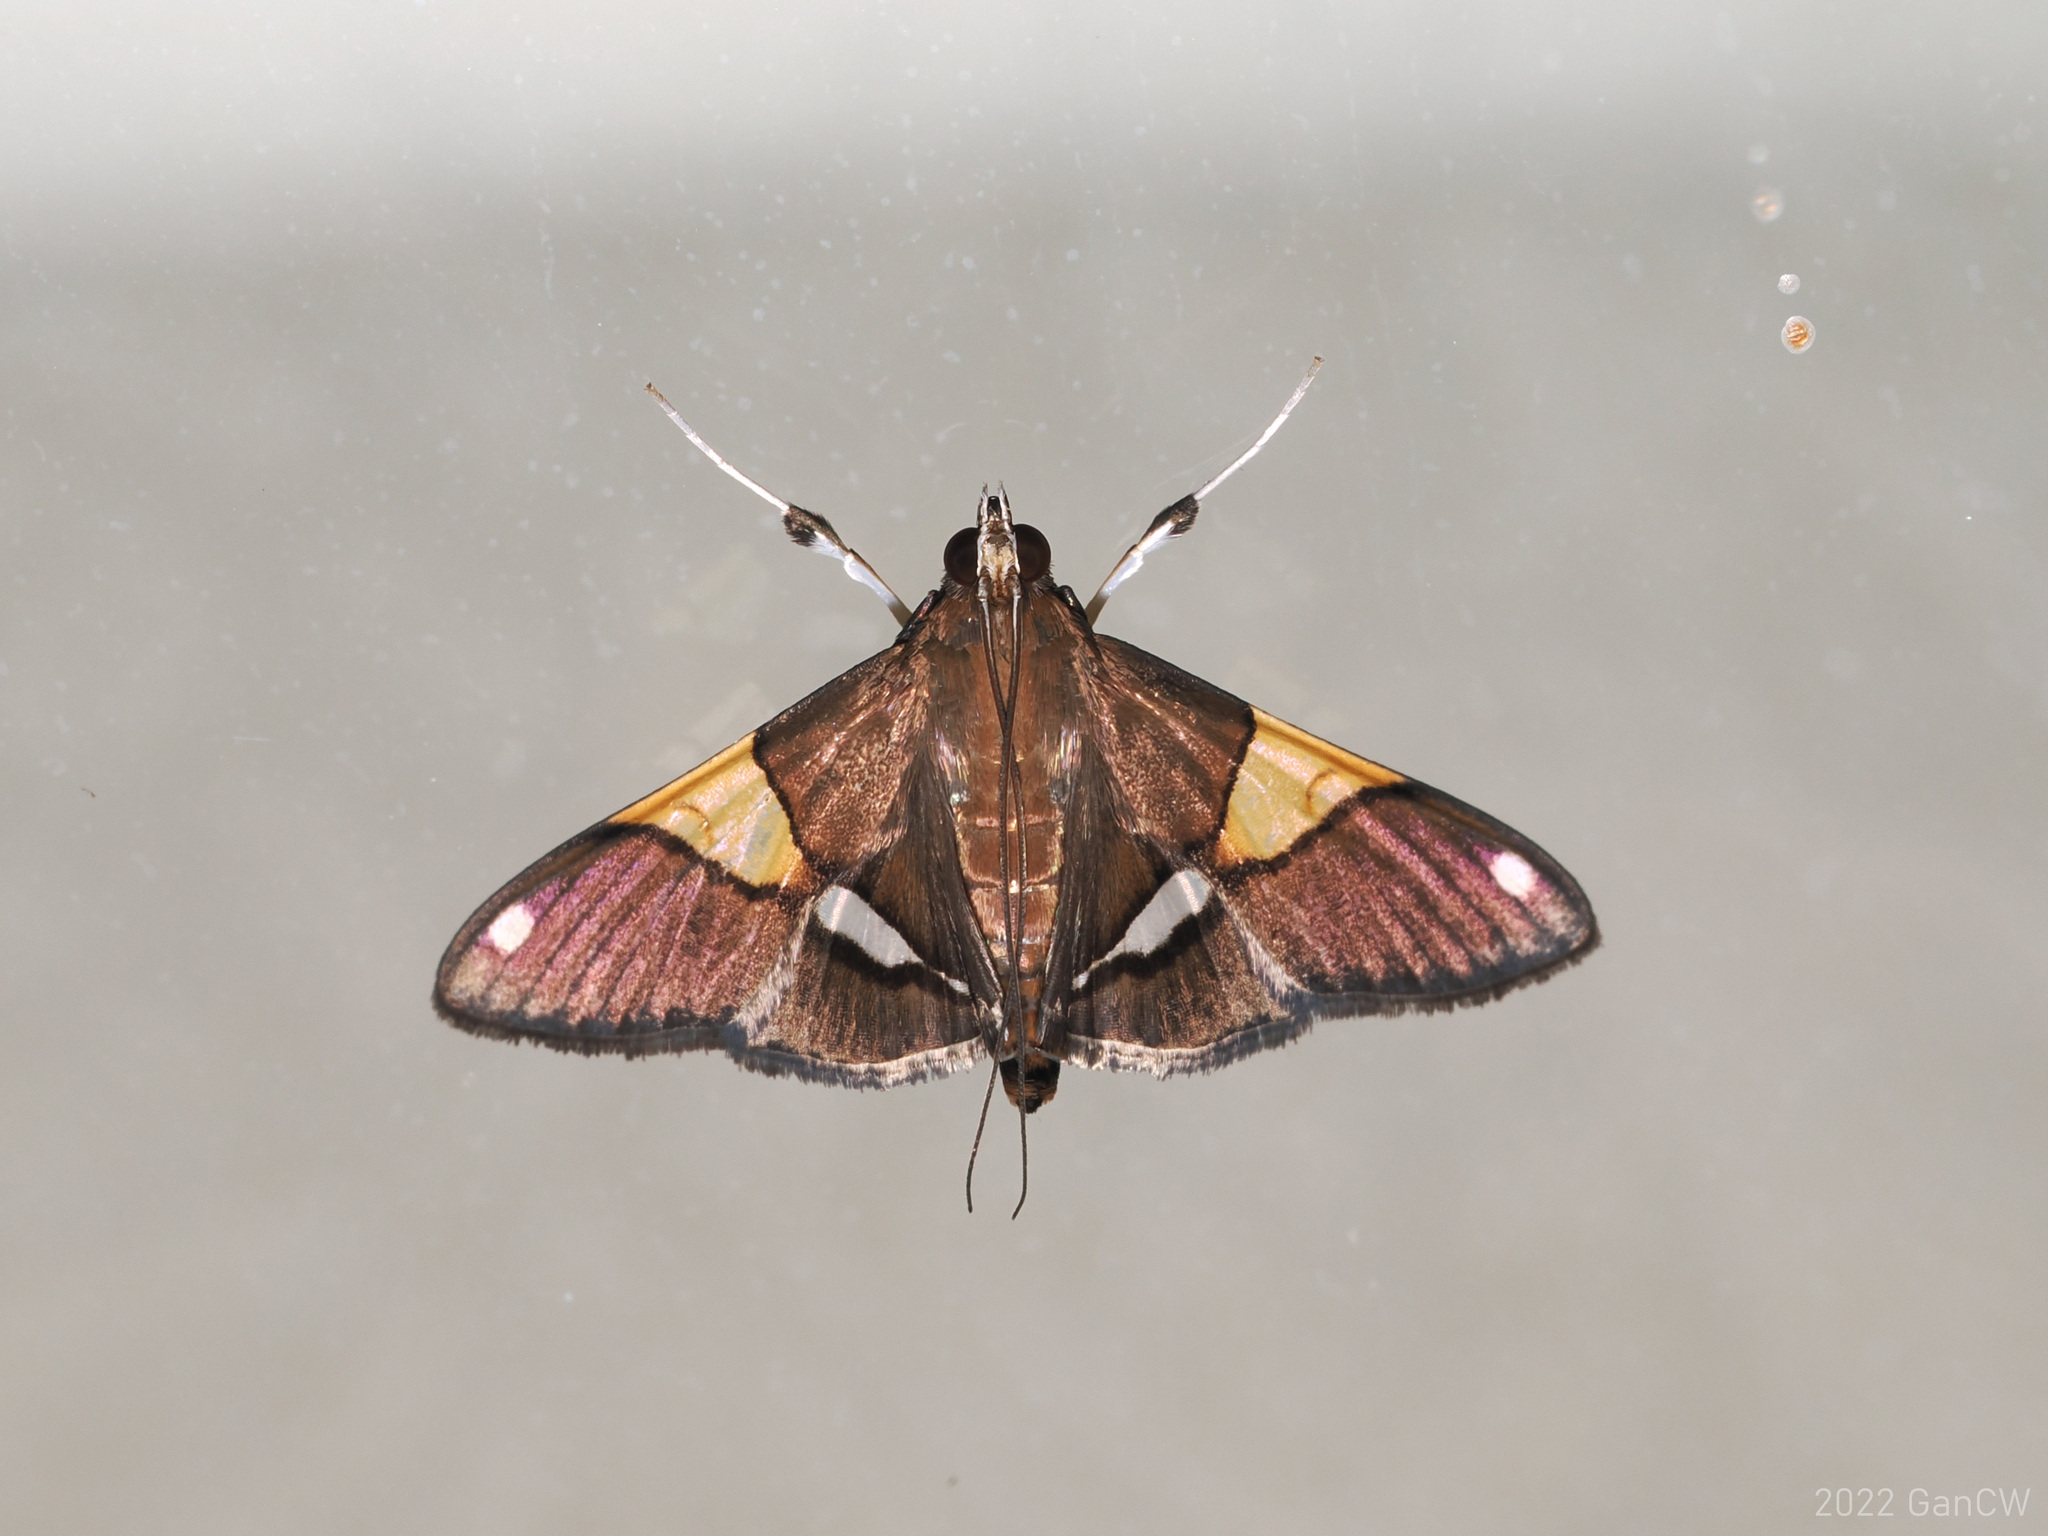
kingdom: Animalia
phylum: Arthropoda
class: Insecta
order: Lepidoptera
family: Crambidae
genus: Heterocnephes
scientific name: Heterocnephes scapulalis
